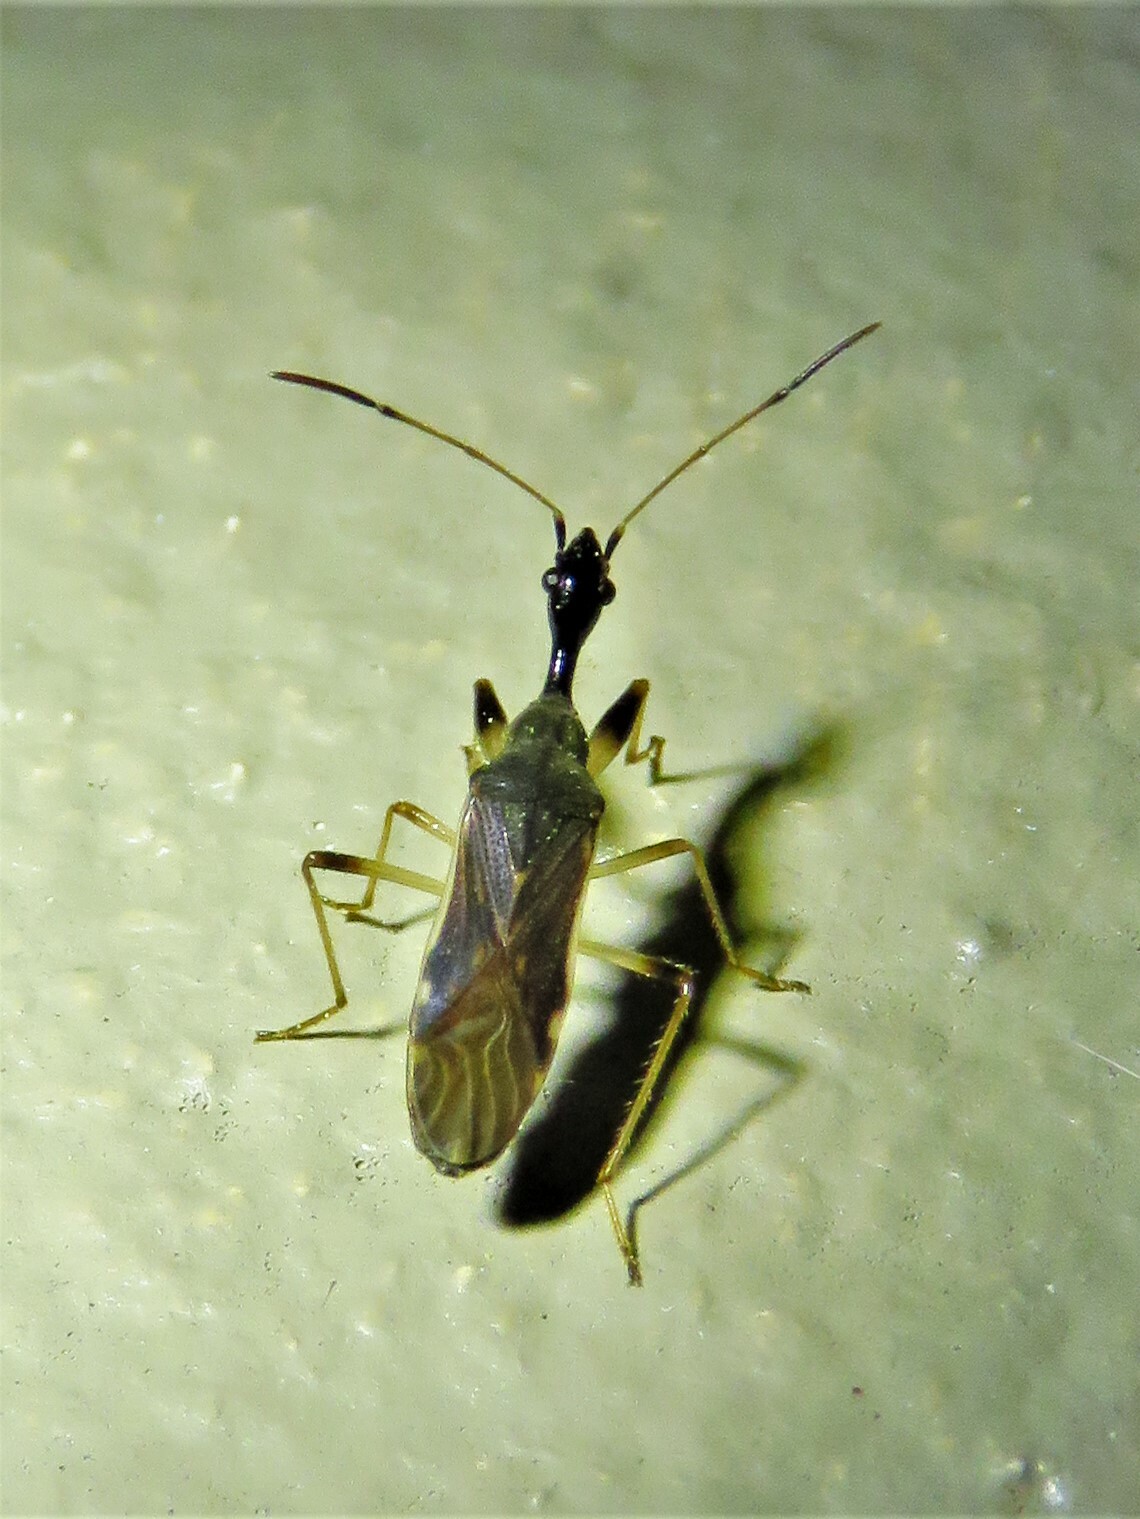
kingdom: Animalia
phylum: Arthropoda
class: Insecta
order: Hemiptera
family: Rhyparochromidae
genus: Myodocha
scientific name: Myodocha serripes
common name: Long-necked seed bug
